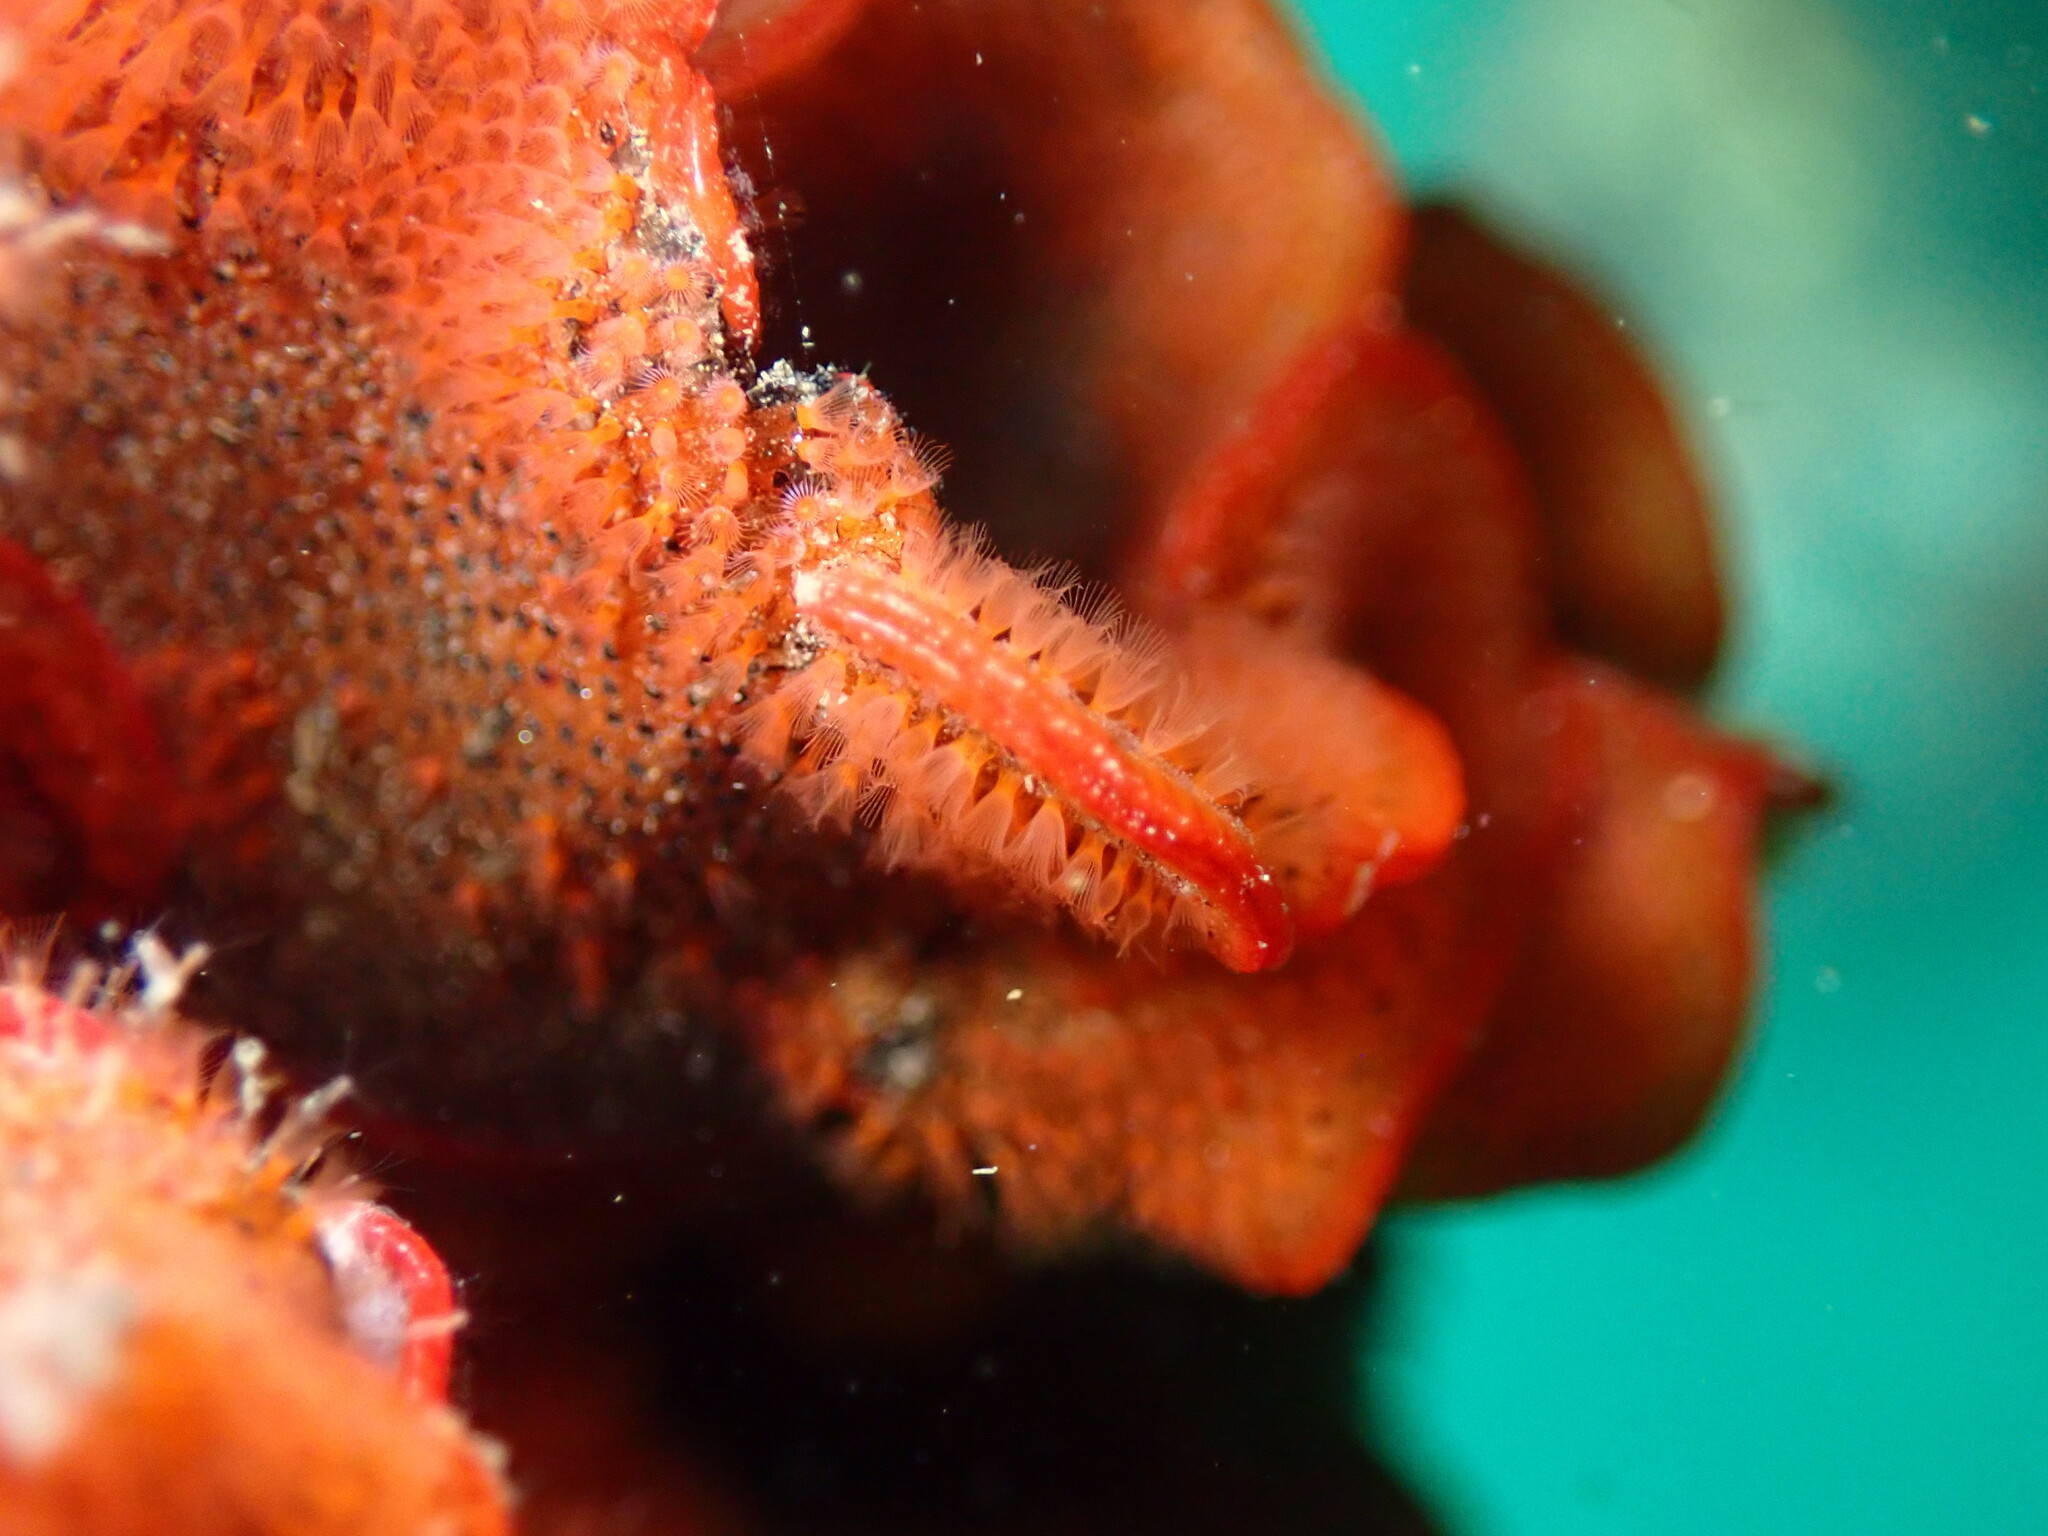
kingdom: Animalia
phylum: Bryozoa
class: Gymnolaemata
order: Cheilostomatida
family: Watersiporidae
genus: Watersipora
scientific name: Watersipora subtorquata
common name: Bryozoan
